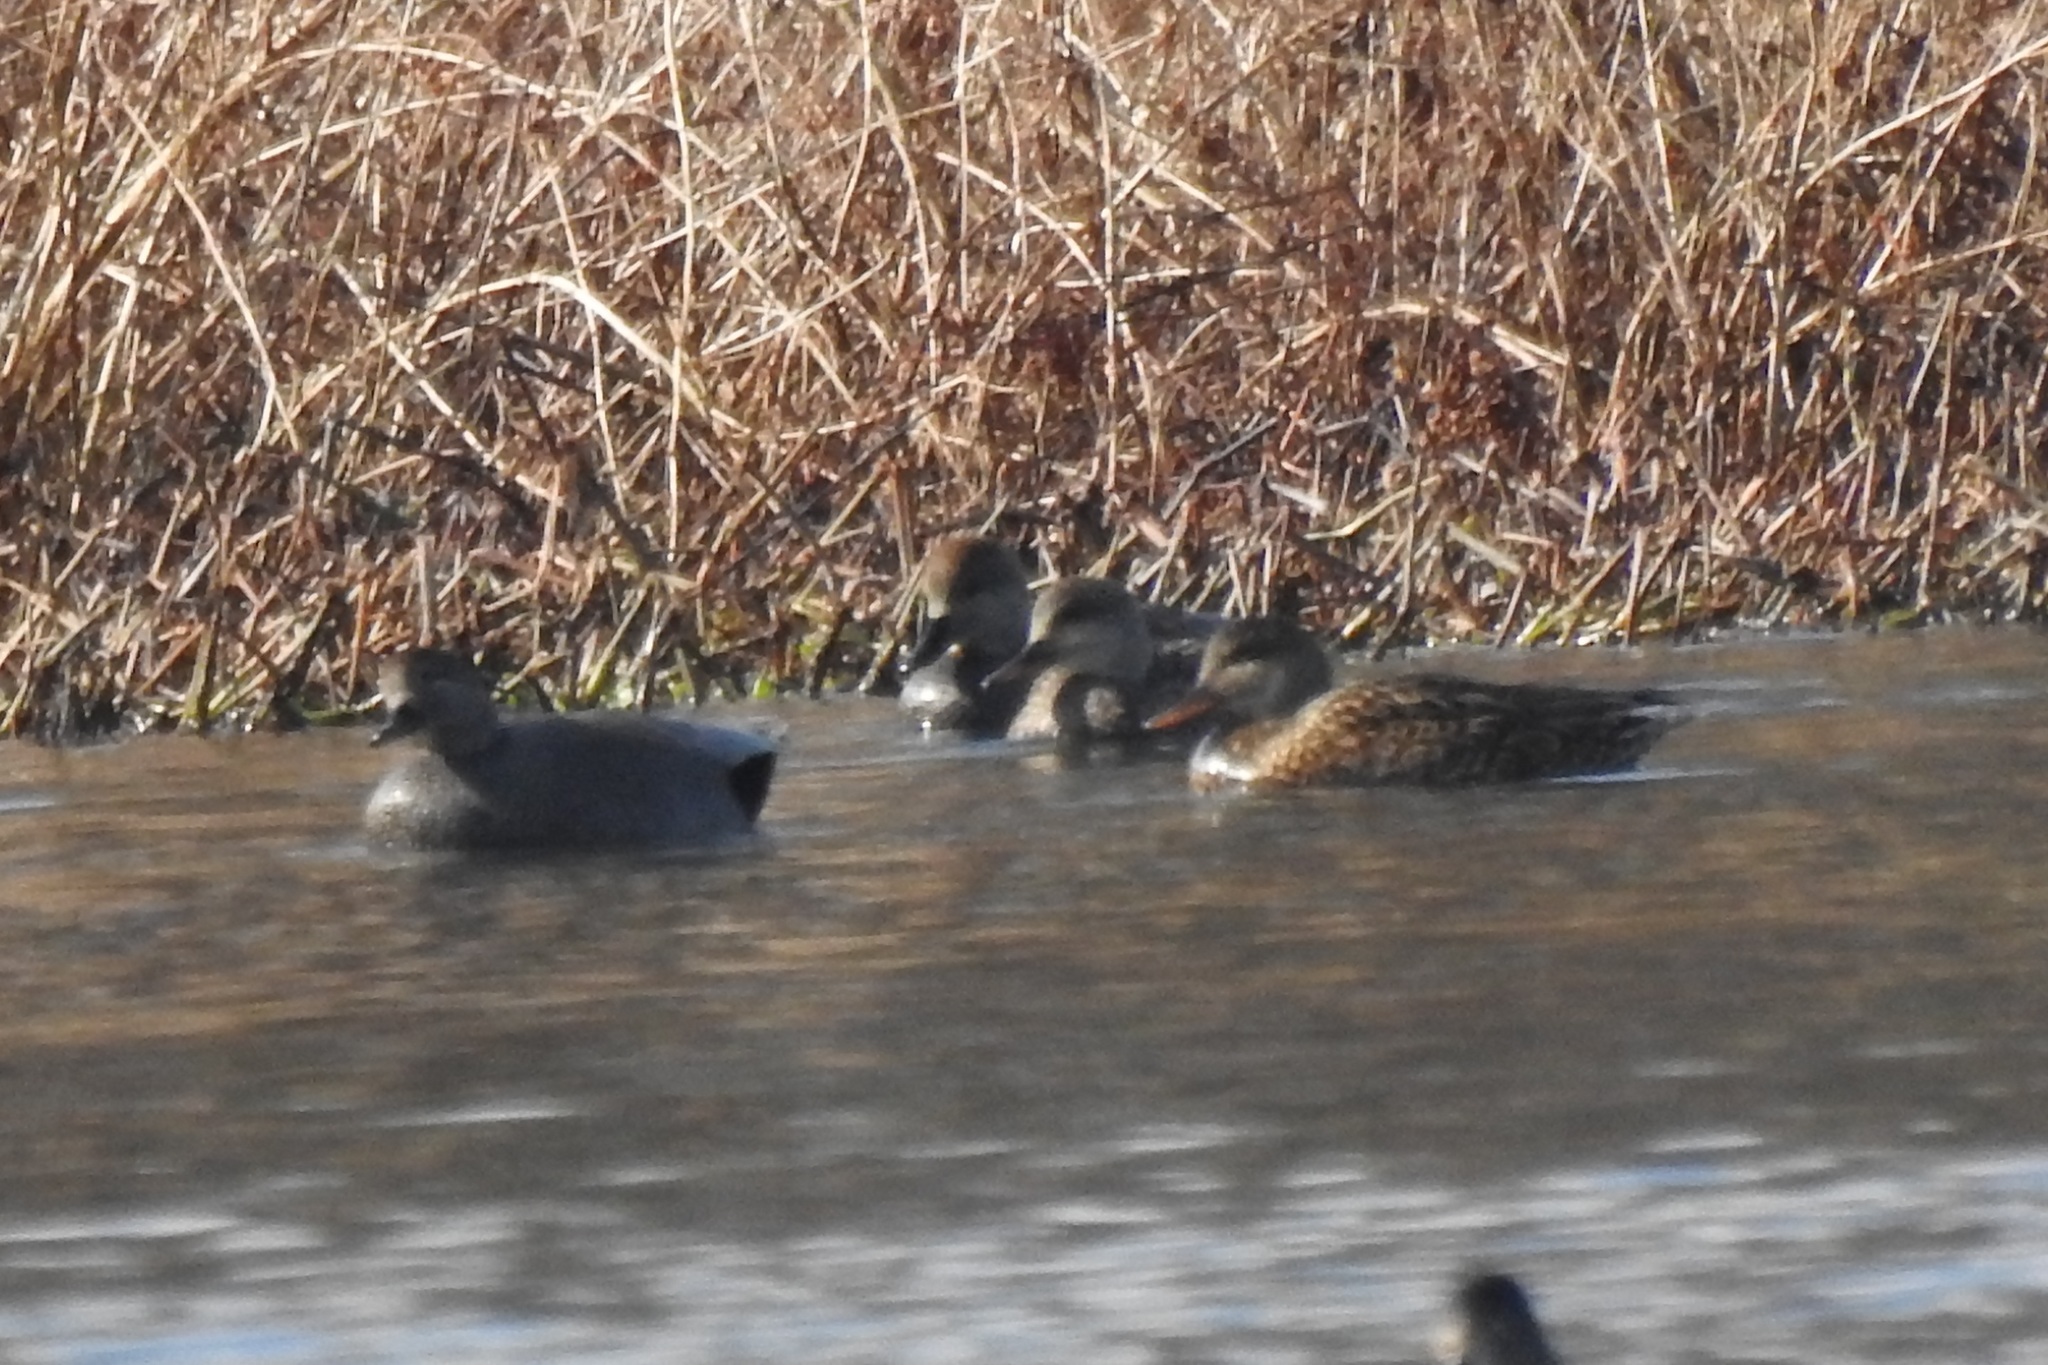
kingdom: Animalia
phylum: Chordata
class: Aves
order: Anseriformes
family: Anatidae
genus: Mareca
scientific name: Mareca strepera
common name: Gadwall
